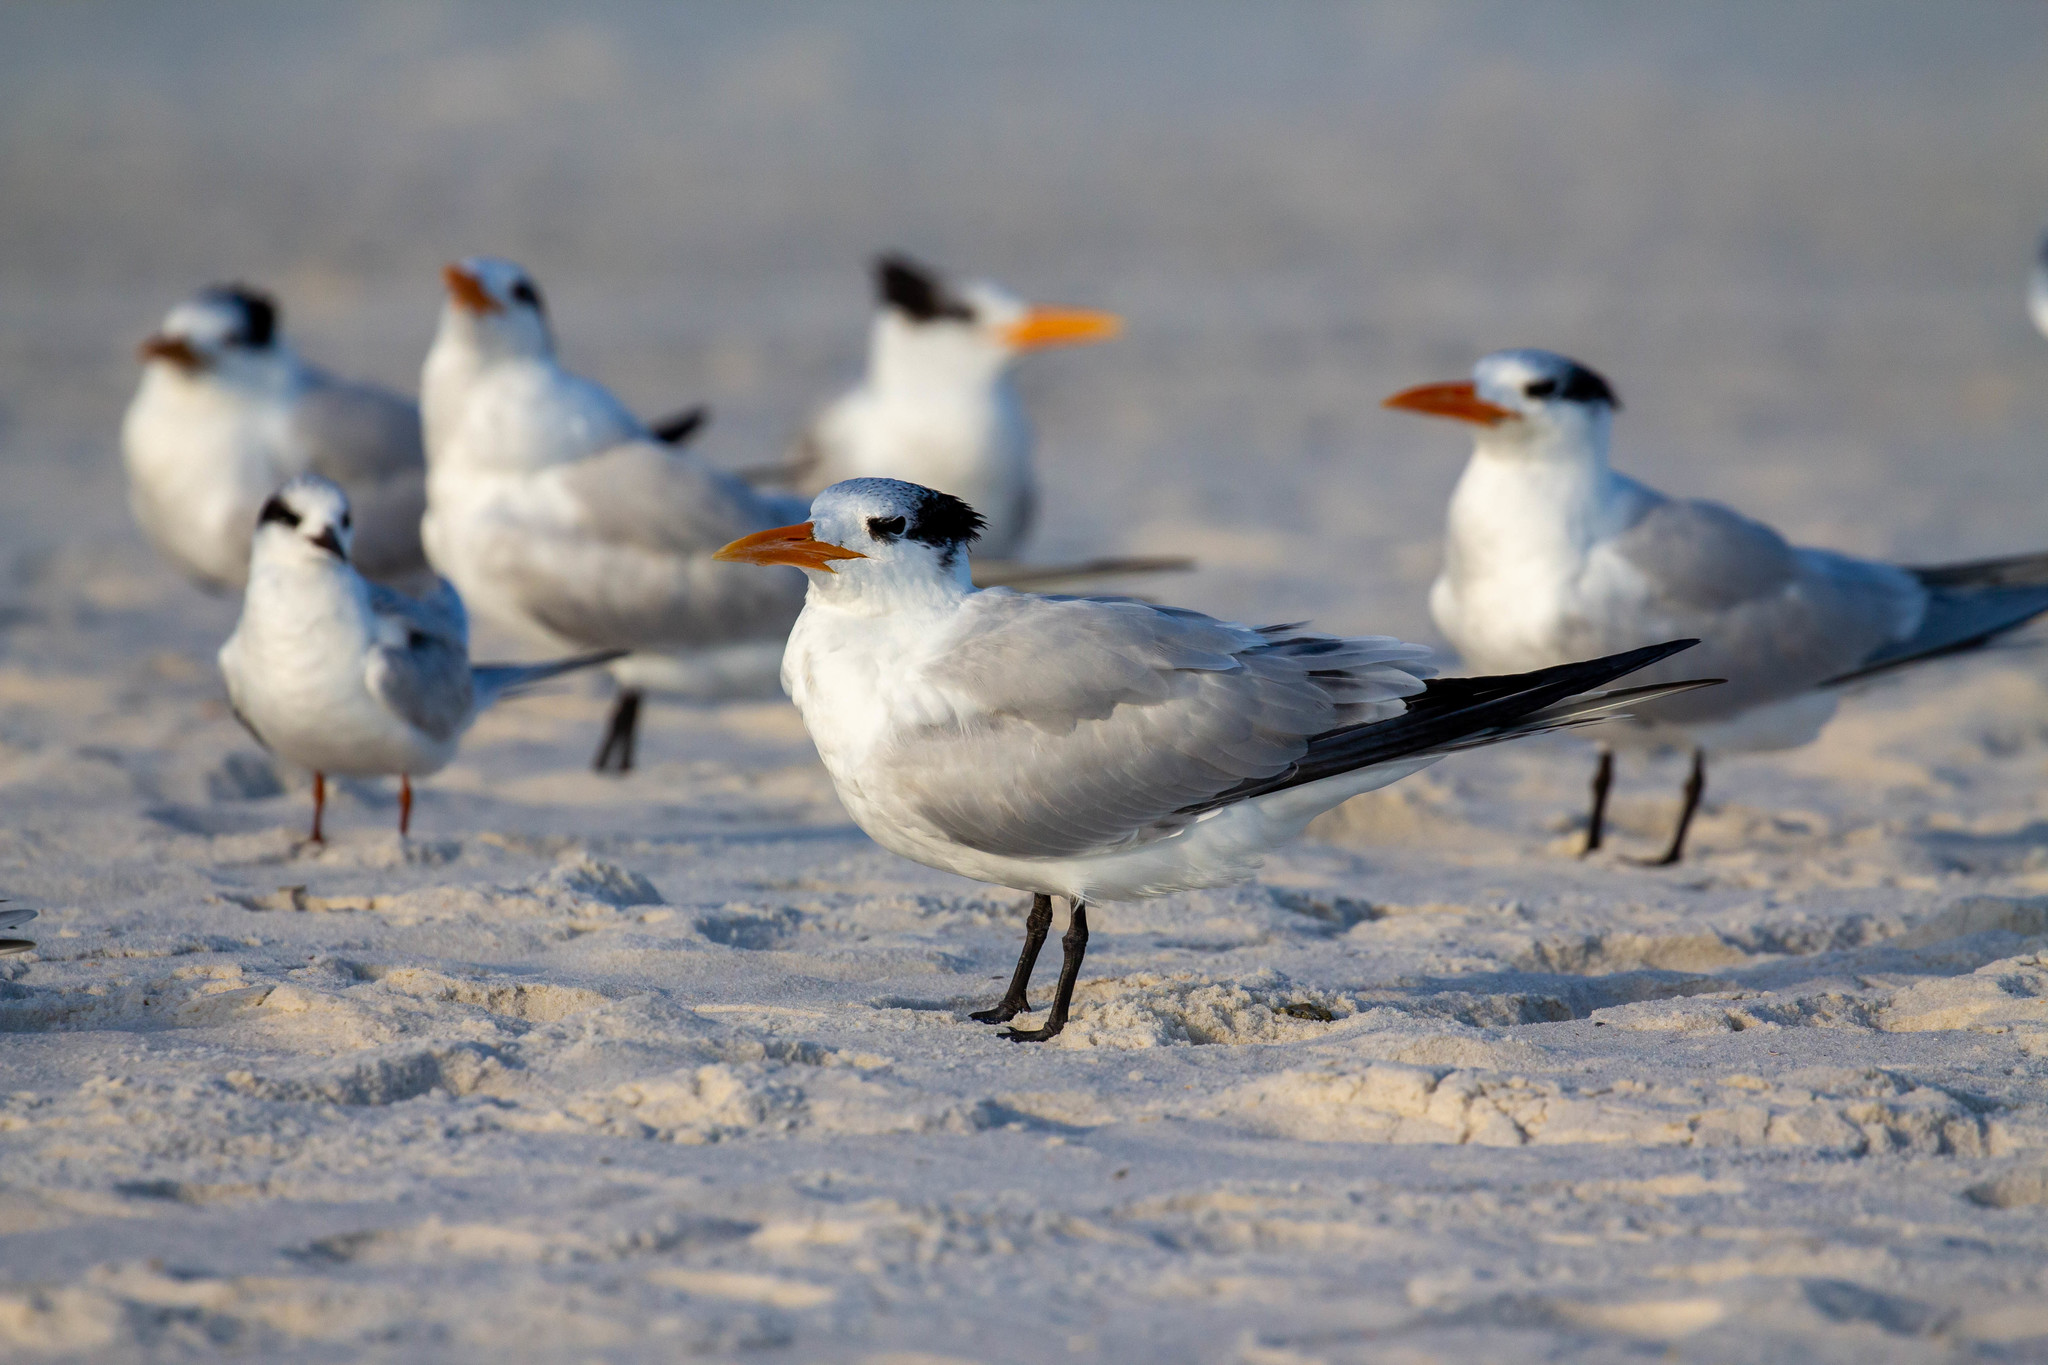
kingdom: Animalia
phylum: Chordata
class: Aves
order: Charadriiformes
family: Laridae
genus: Thalasseus
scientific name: Thalasseus maximus
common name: Royal tern
